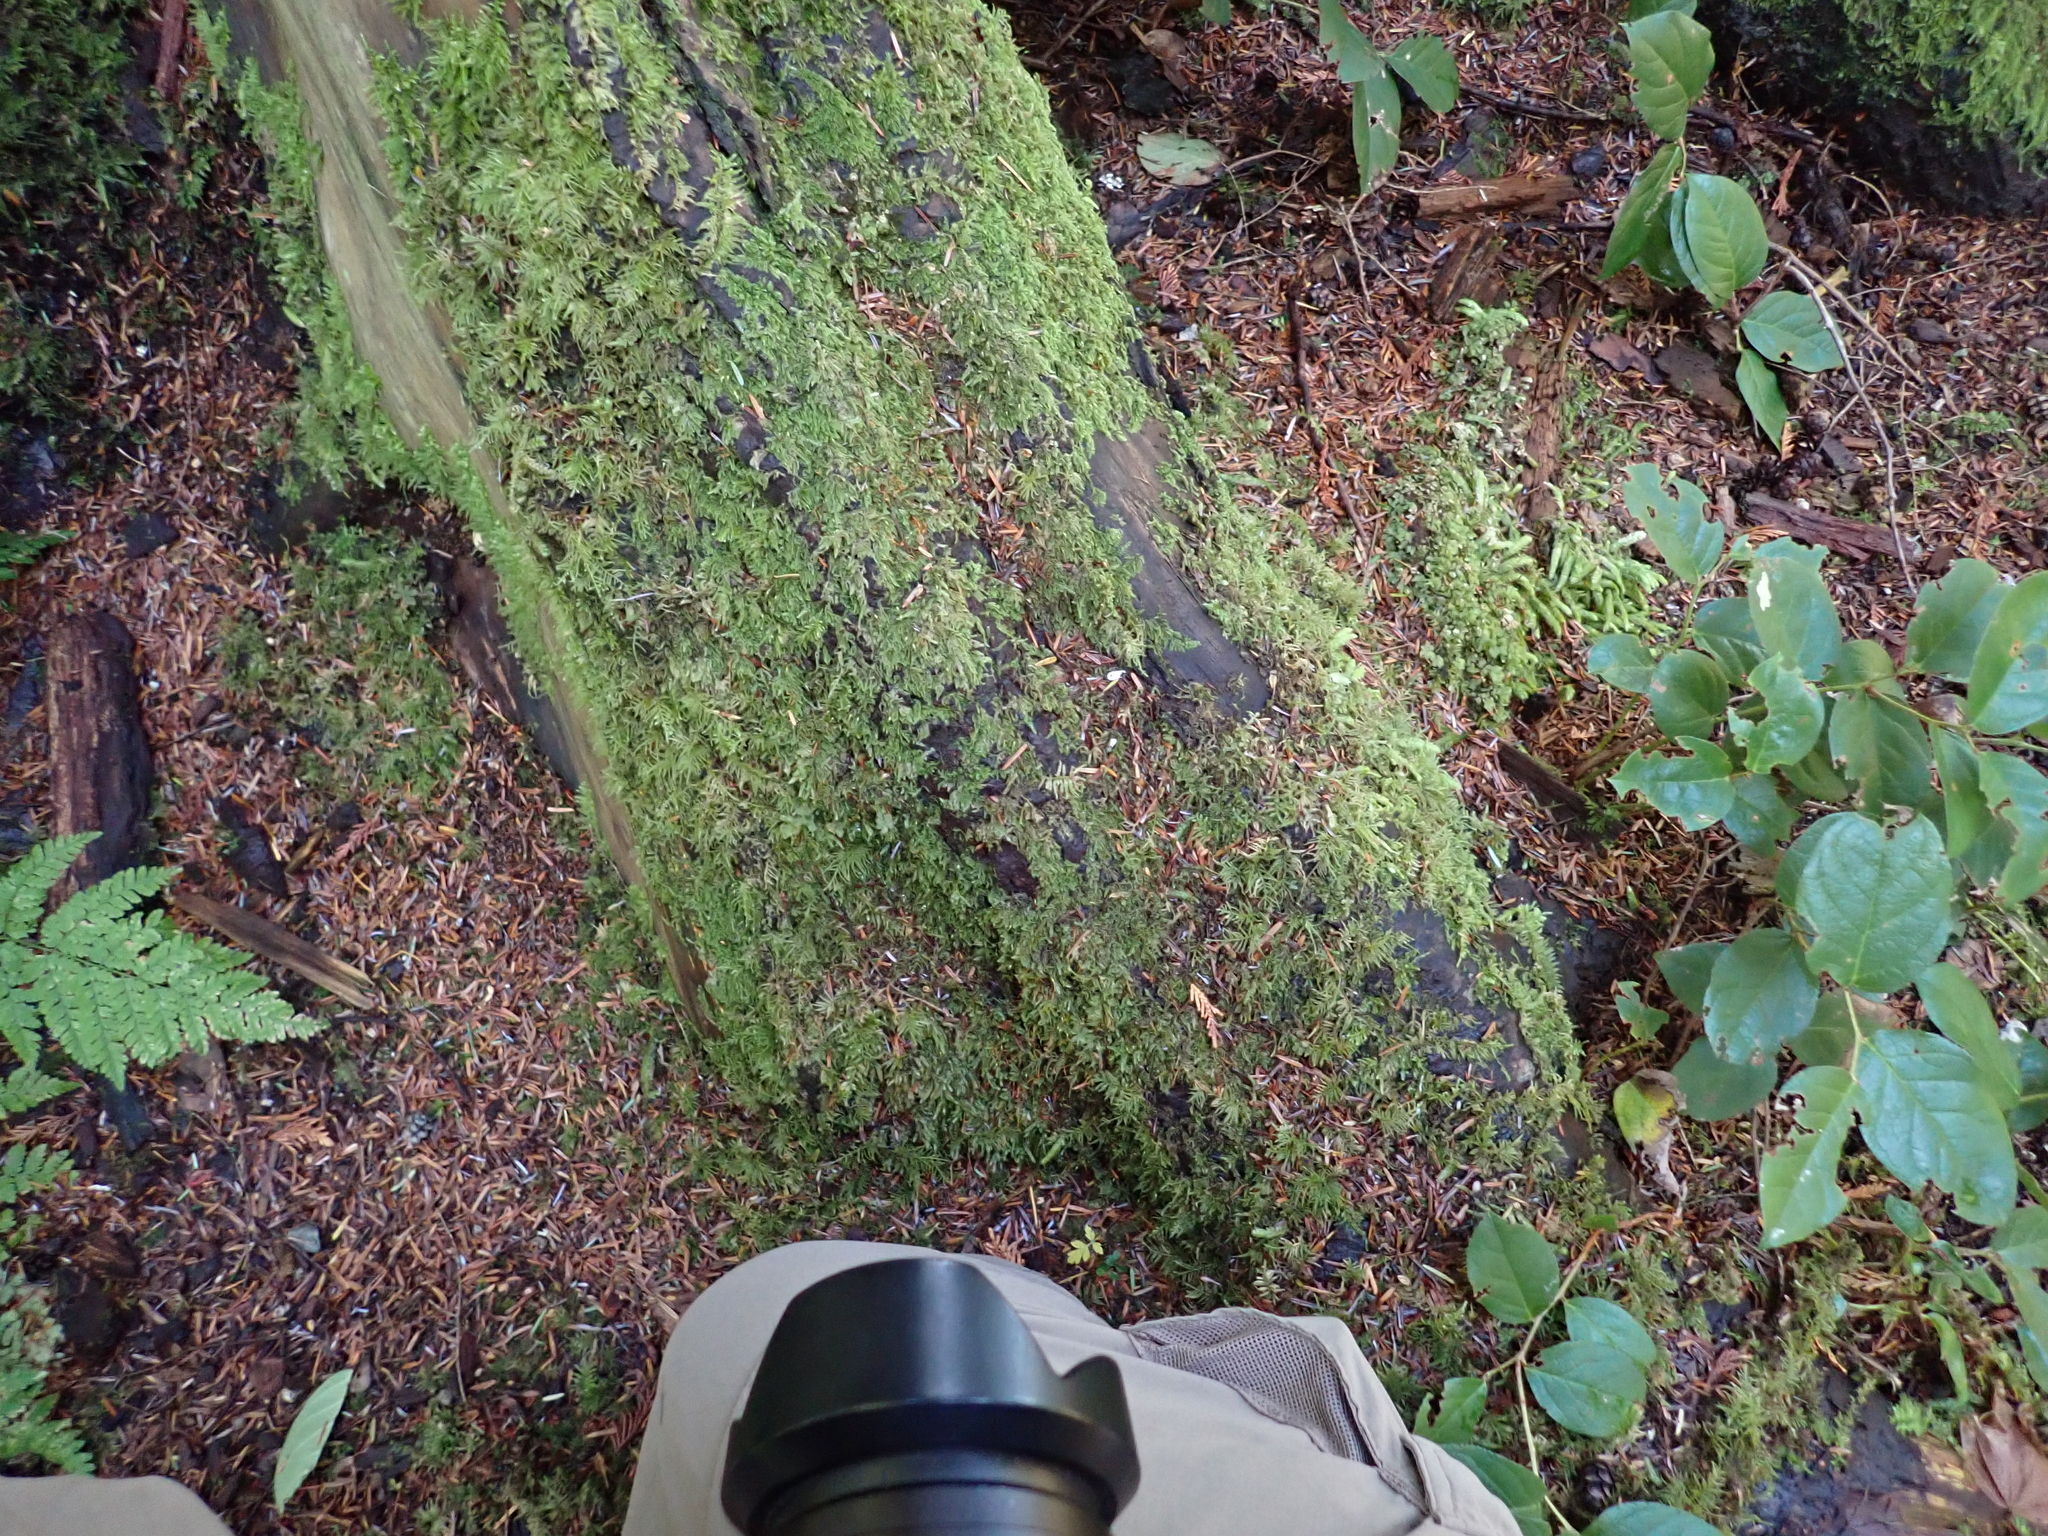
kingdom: Plantae
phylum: Bryophyta
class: Bryopsida
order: Hypnales
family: Pylaisiadelphaceae
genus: Trochophyllohypnum
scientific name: Trochophyllohypnum circinale
